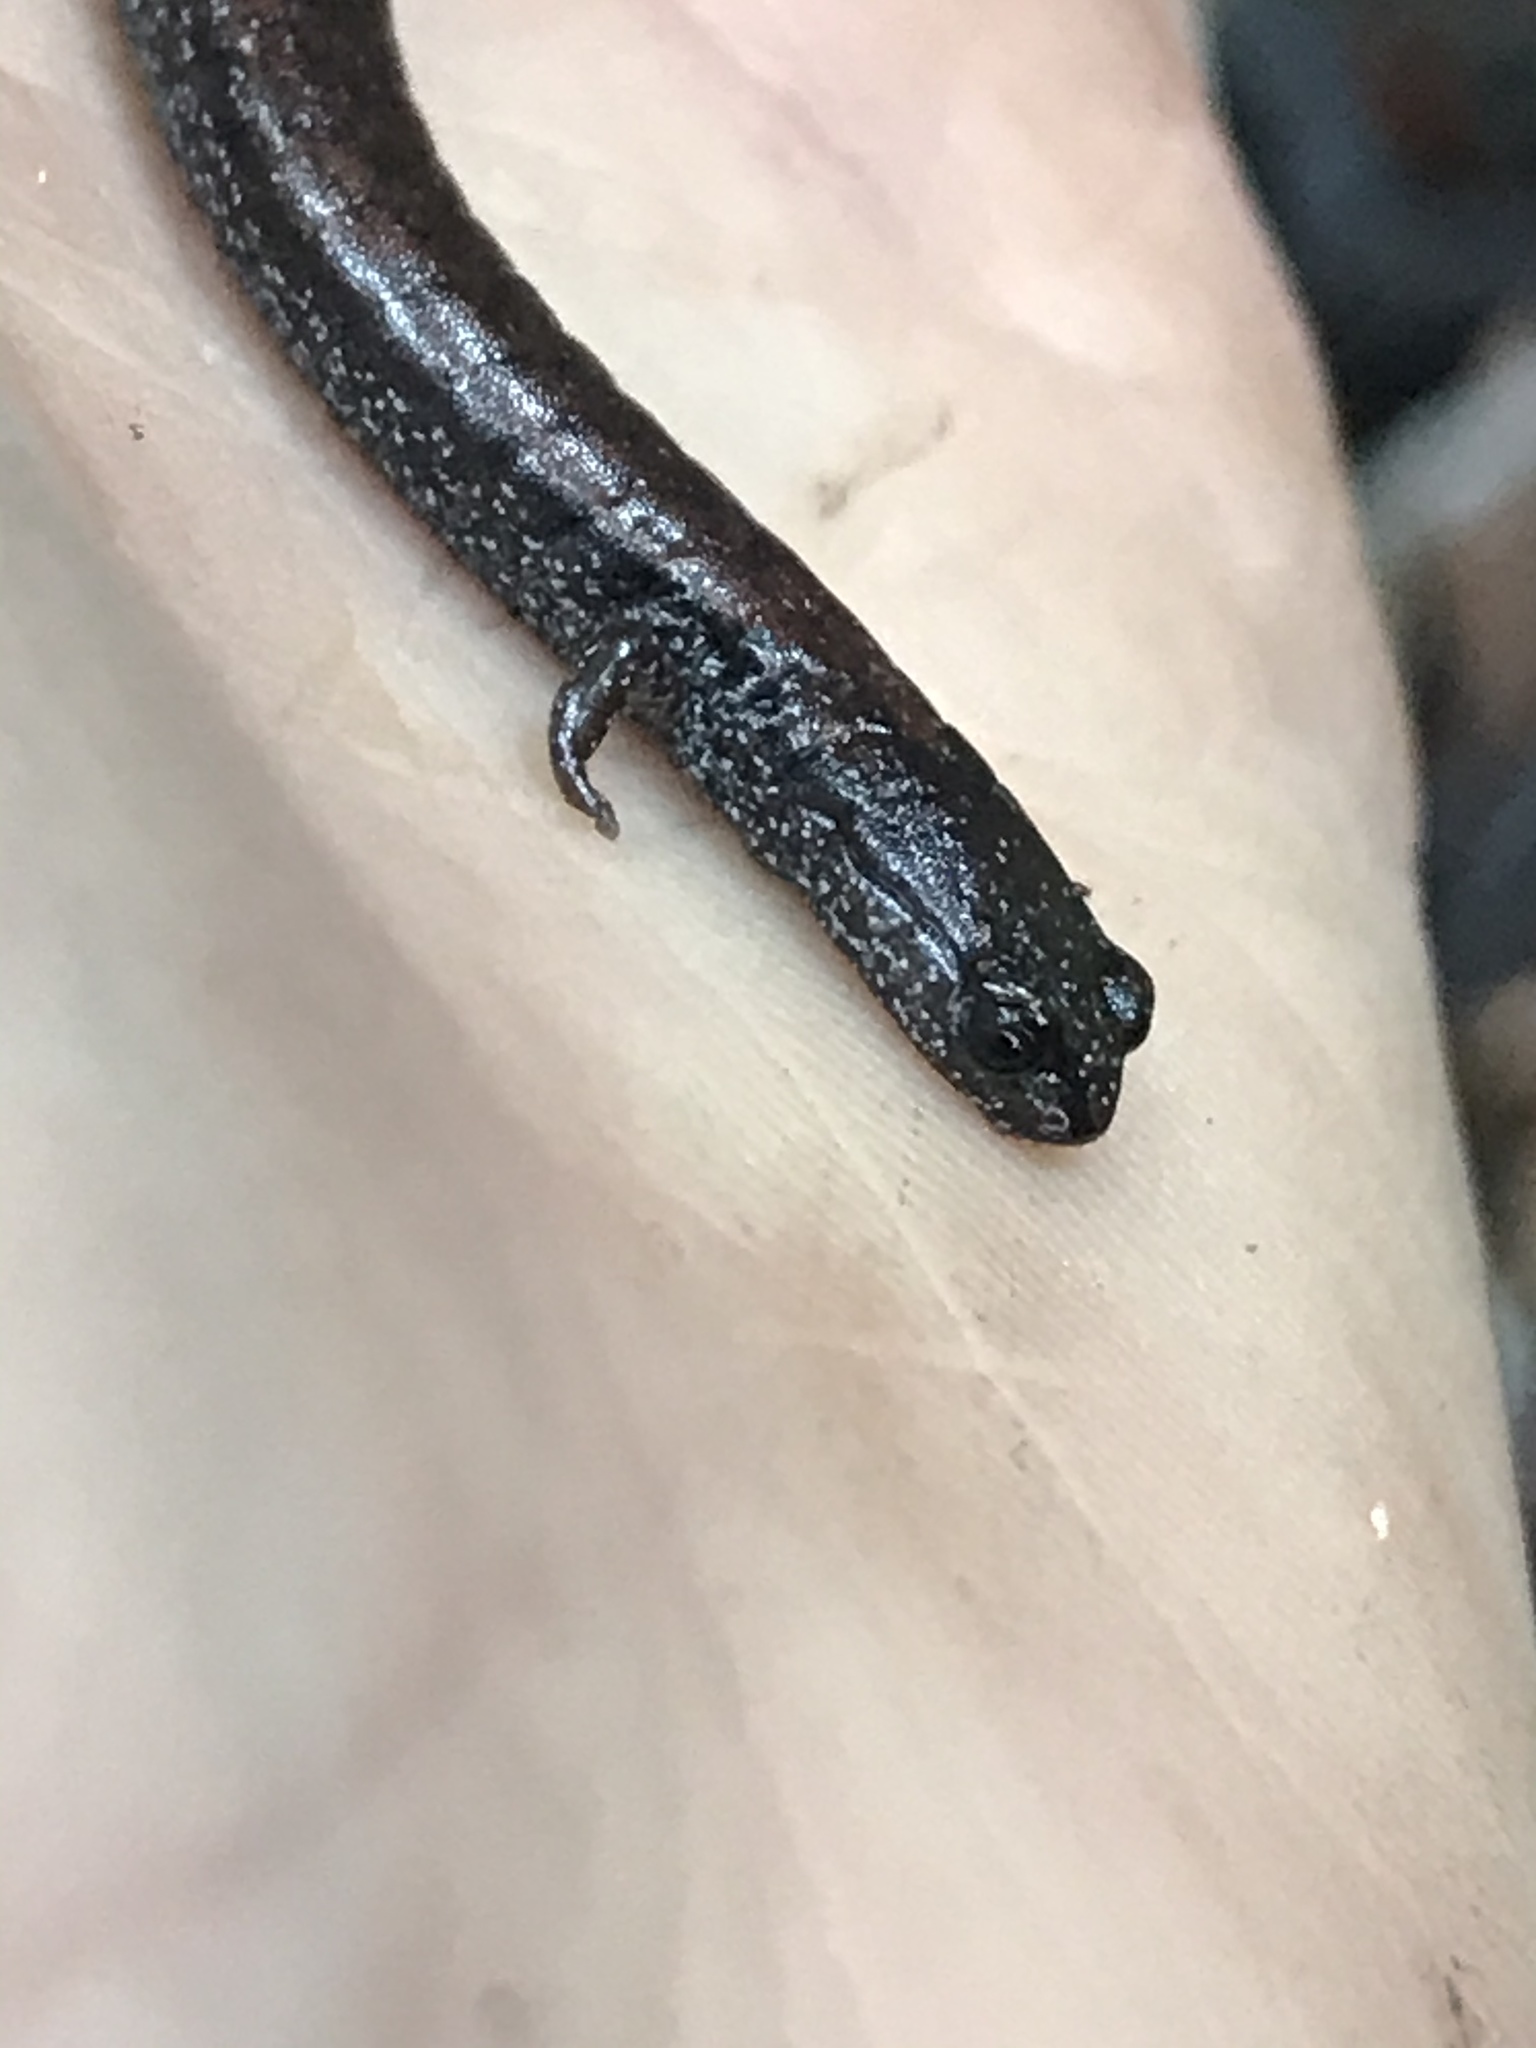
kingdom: Animalia
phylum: Chordata
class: Amphibia
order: Caudata
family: Plethodontidae
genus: Batrachoseps
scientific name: Batrachoseps nigriventris
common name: Black-bellied slender salamander
